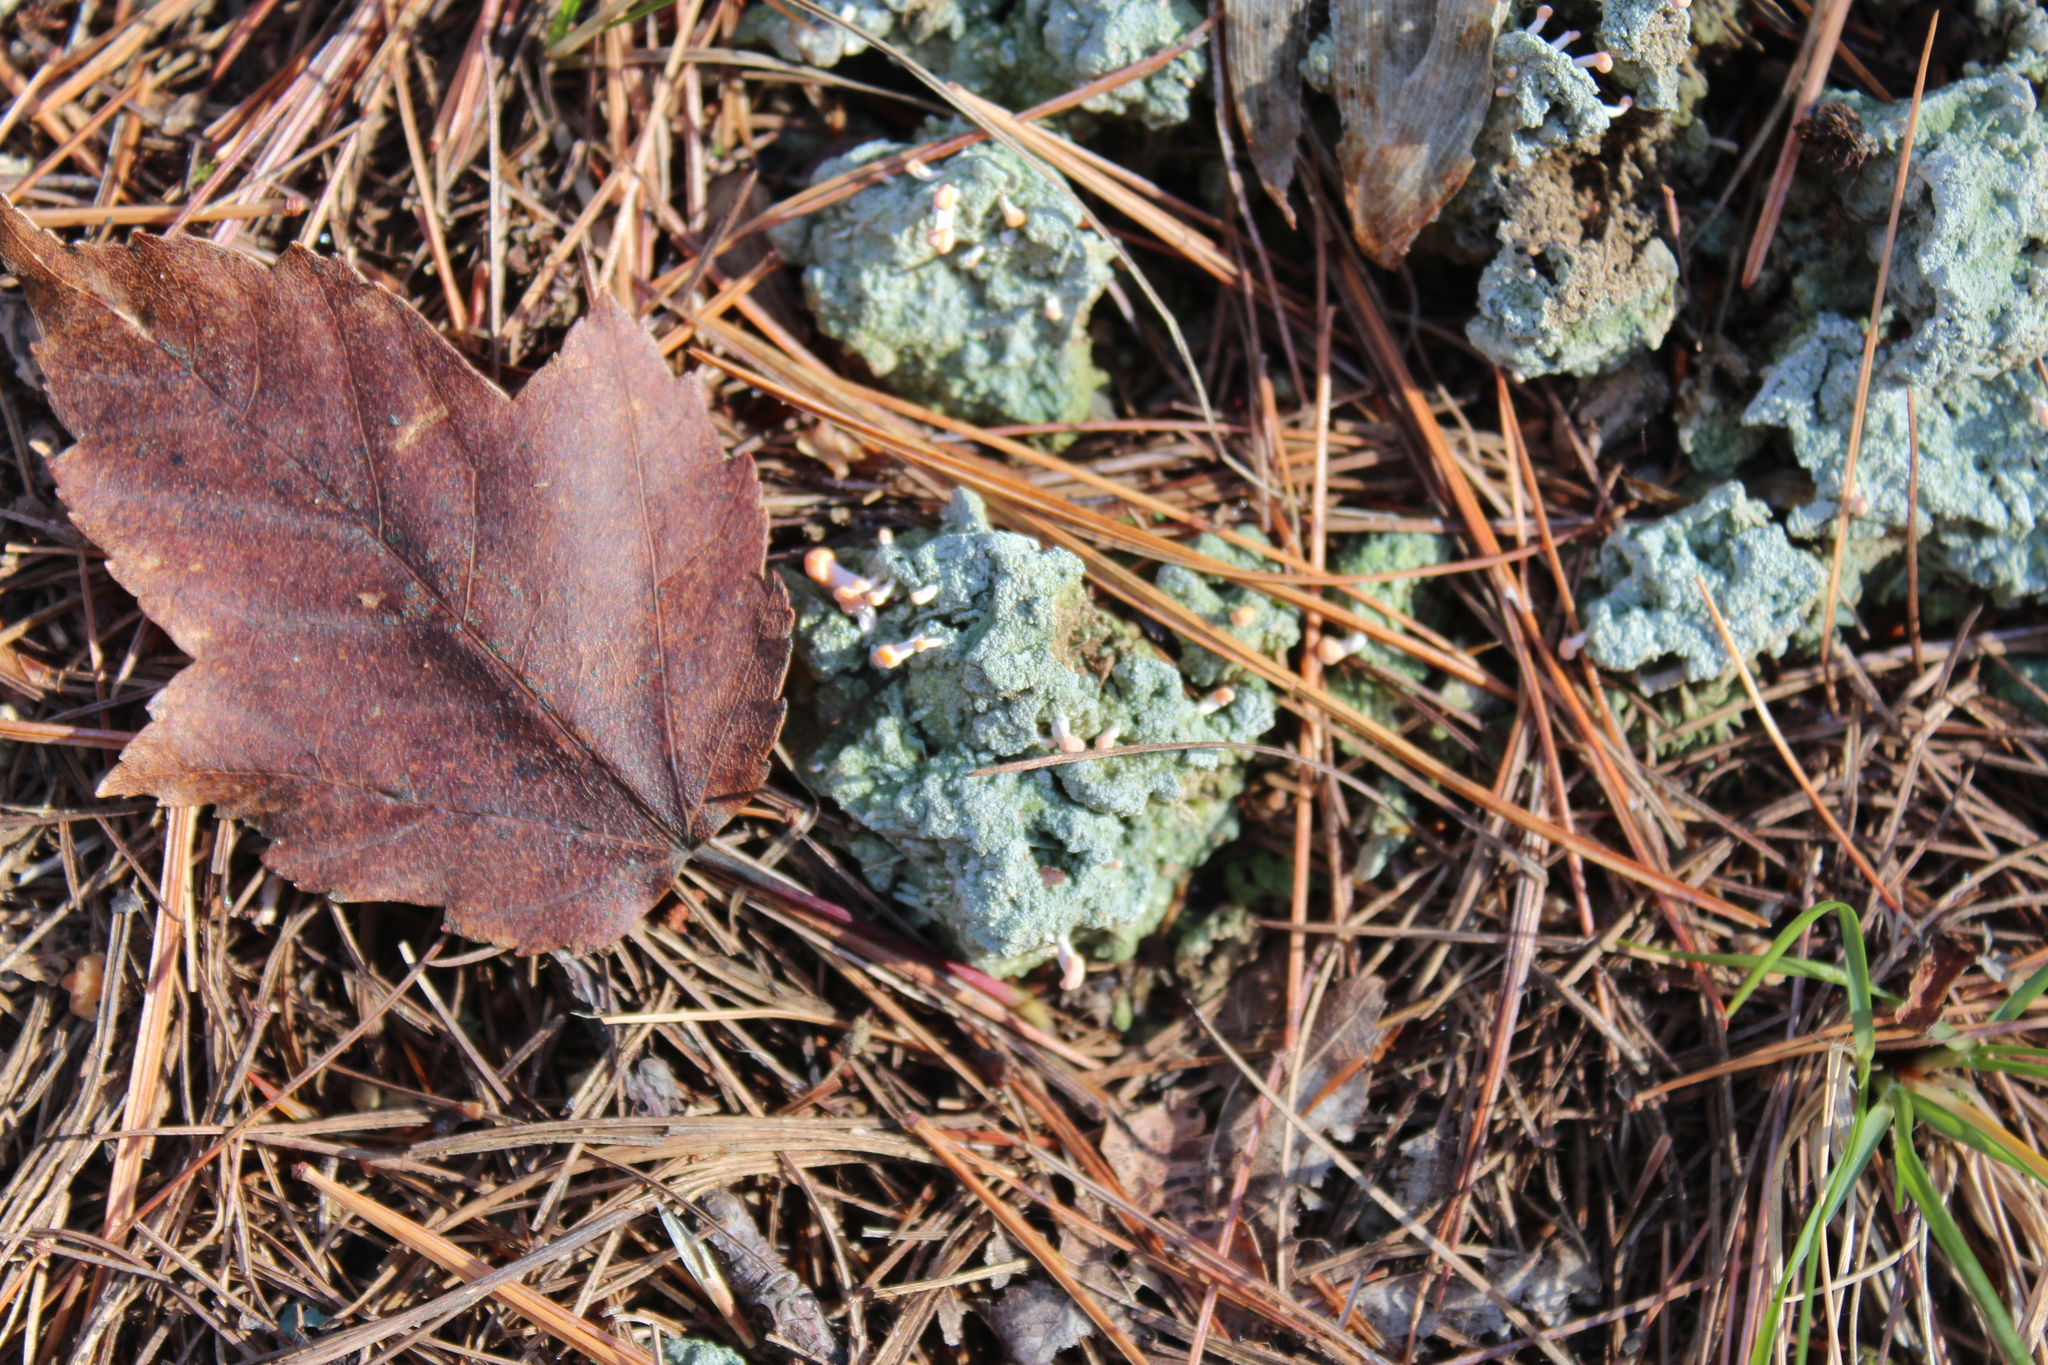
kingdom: Fungi
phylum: Ascomycota
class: Lecanoromycetes
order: Pertusariales
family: Icmadophilaceae
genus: Dibaeis
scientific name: Dibaeis baeomyces
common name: Pink earth lichen
